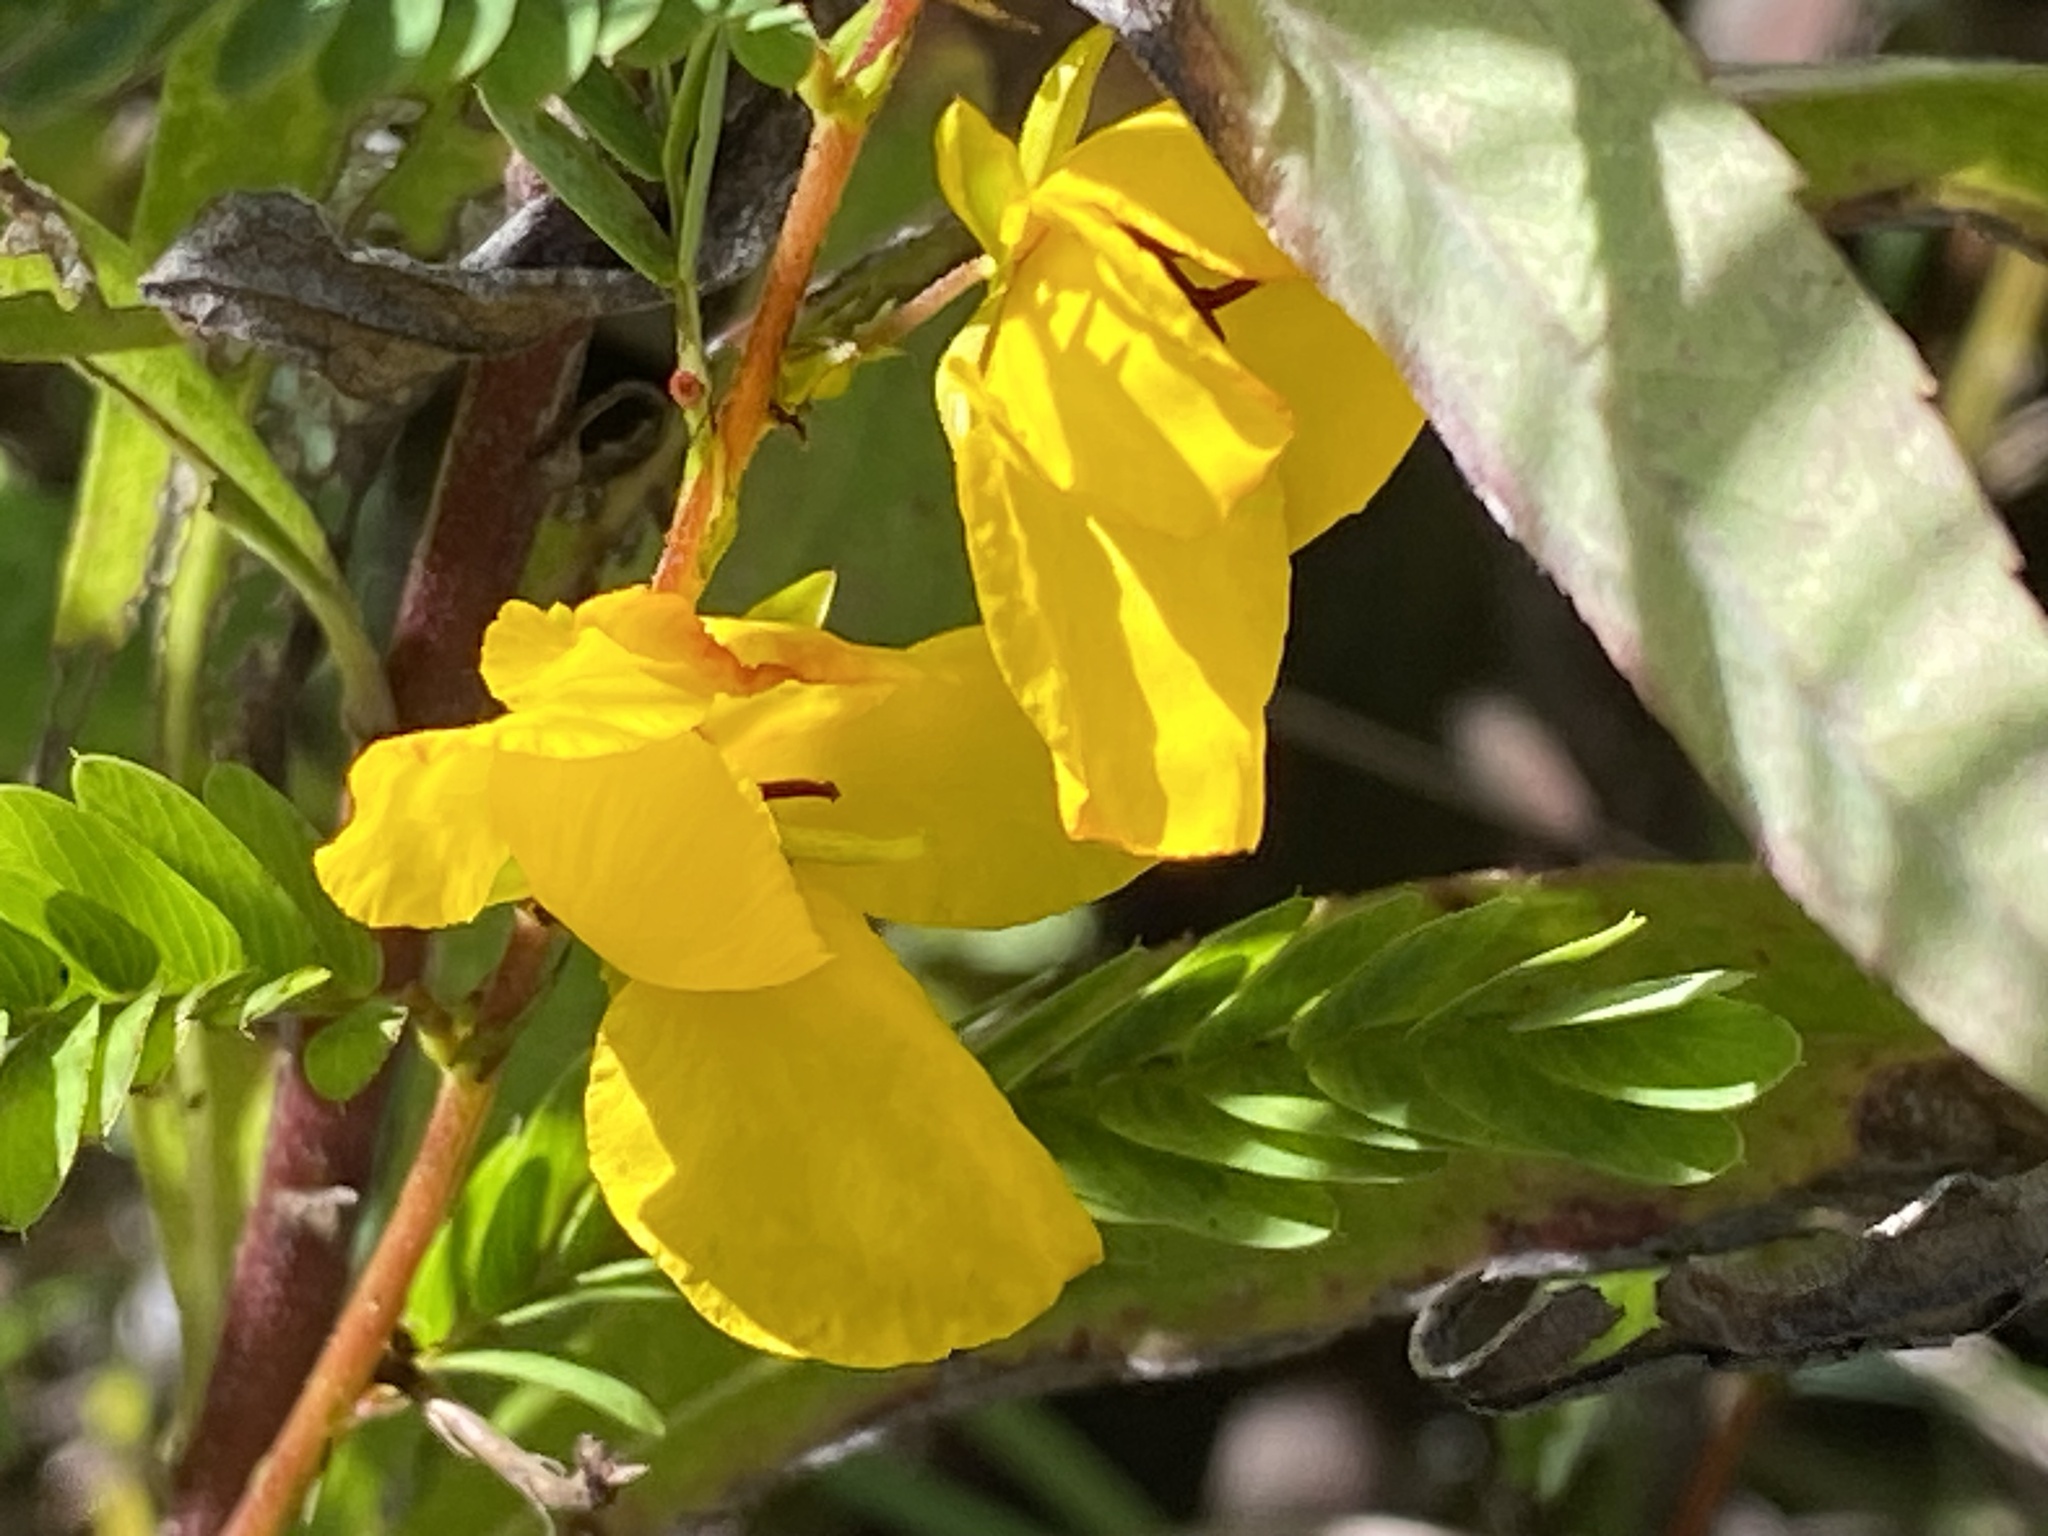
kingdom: Plantae
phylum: Tracheophyta
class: Magnoliopsida
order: Fabales
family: Fabaceae
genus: Chamaecrista
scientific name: Chamaecrista fasciculata
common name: Golden cassia
